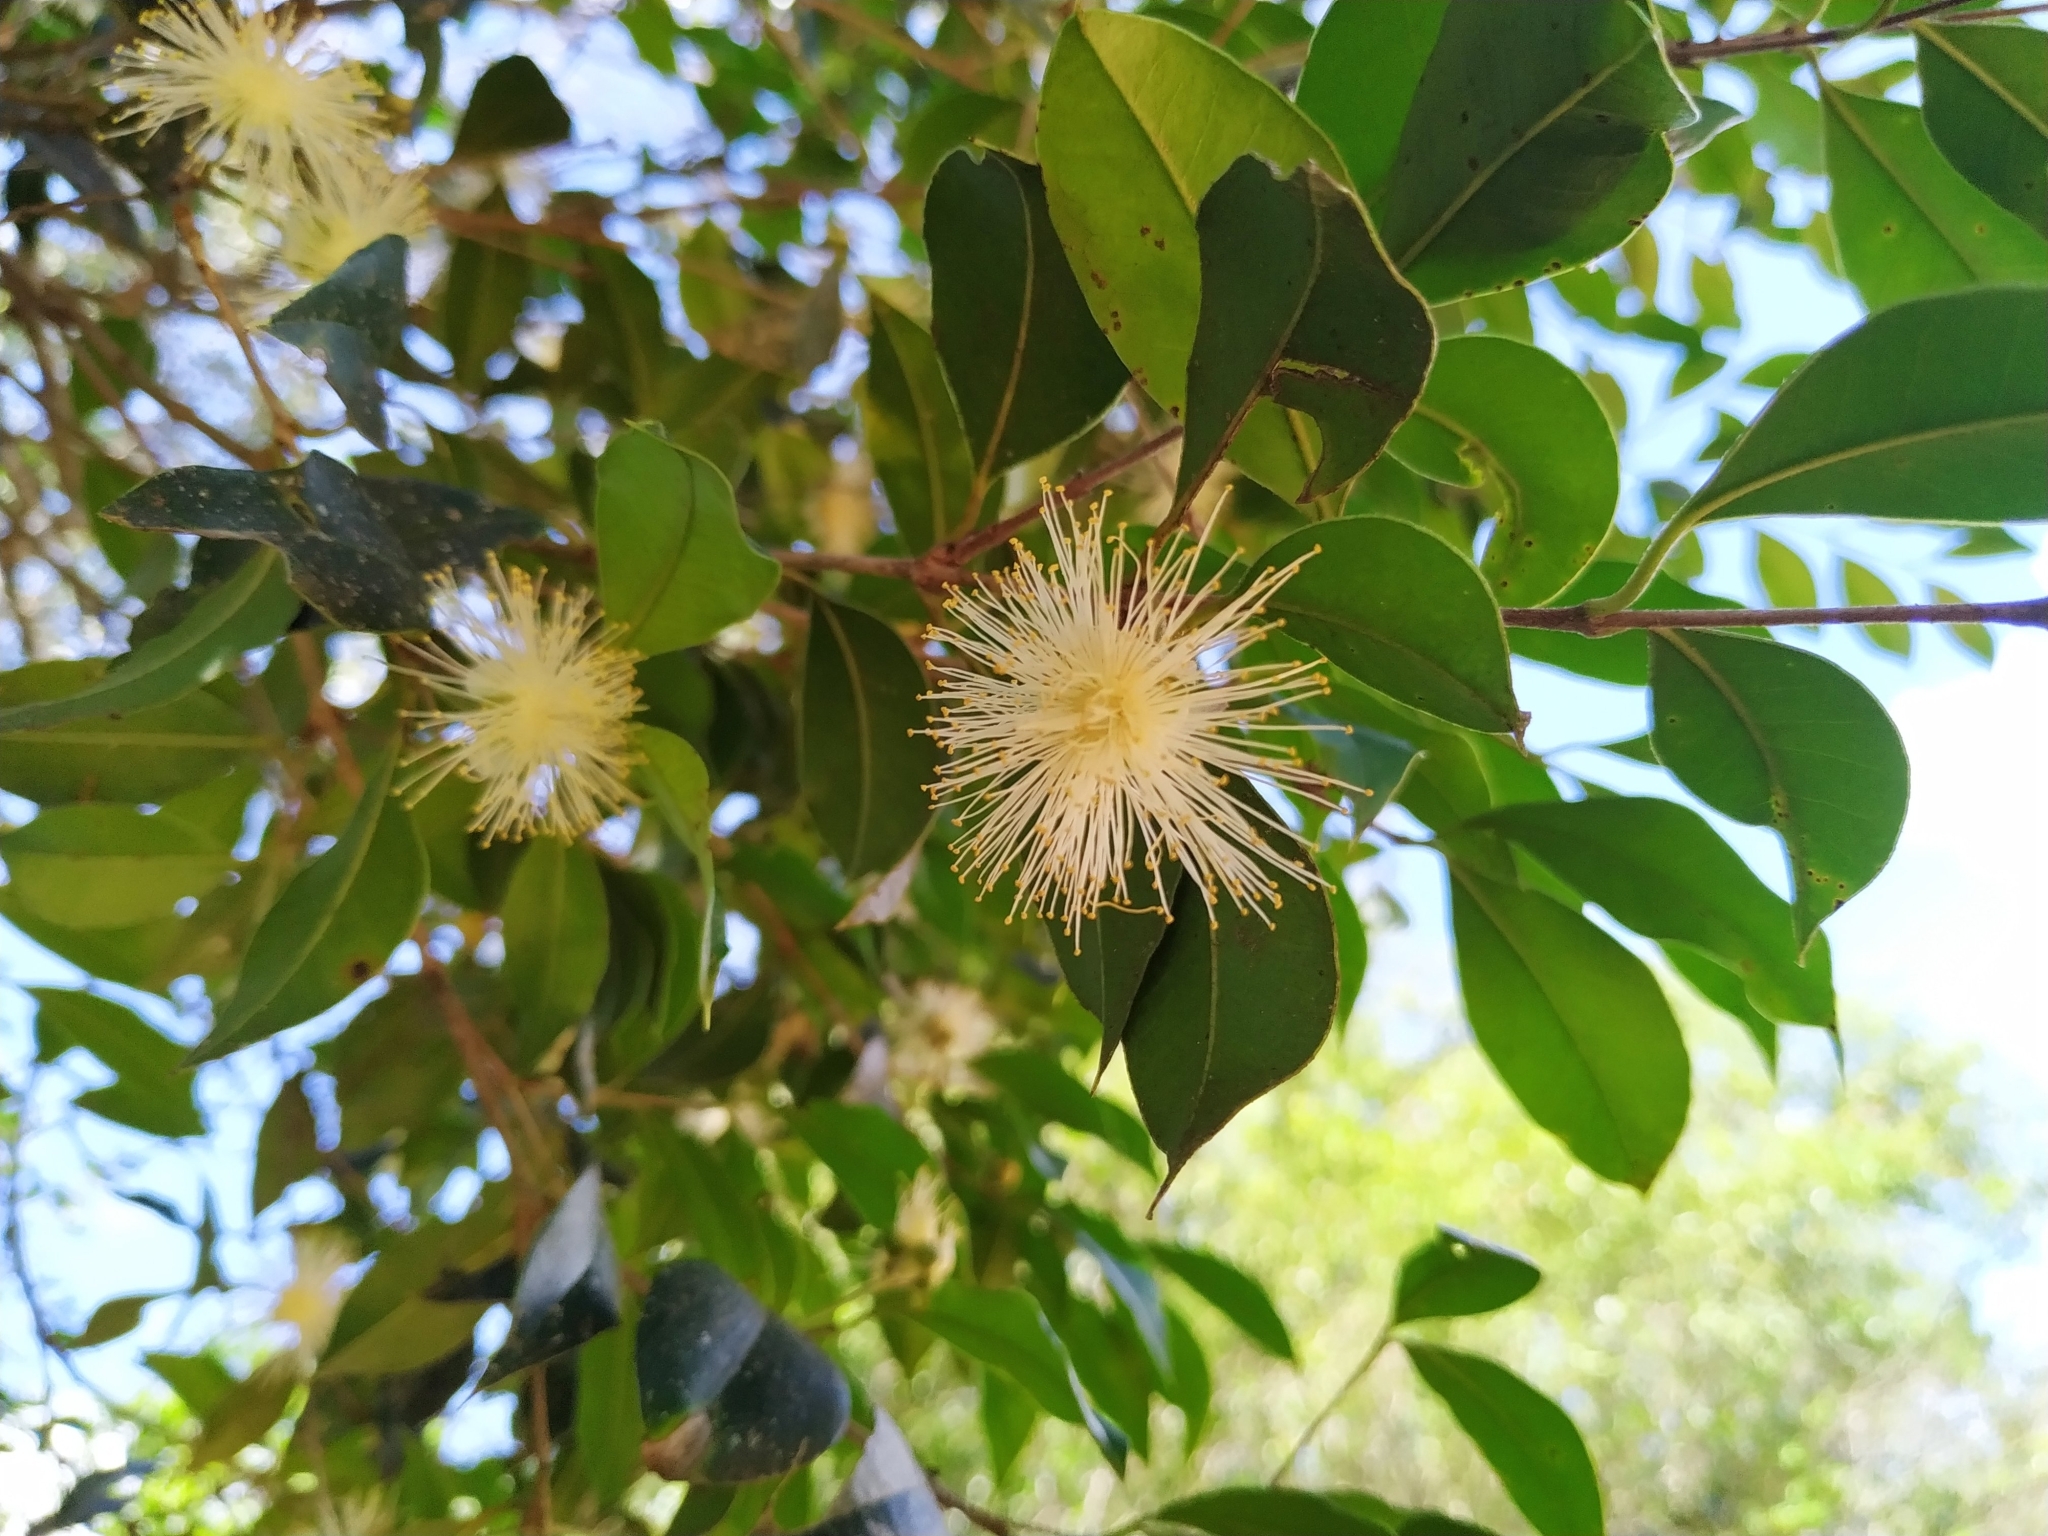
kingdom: Plantae
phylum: Tracheophyta
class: Magnoliopsida
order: Myrtales
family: Myrtaceae
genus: Myrcianthes
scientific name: Myrcianthes pungens
